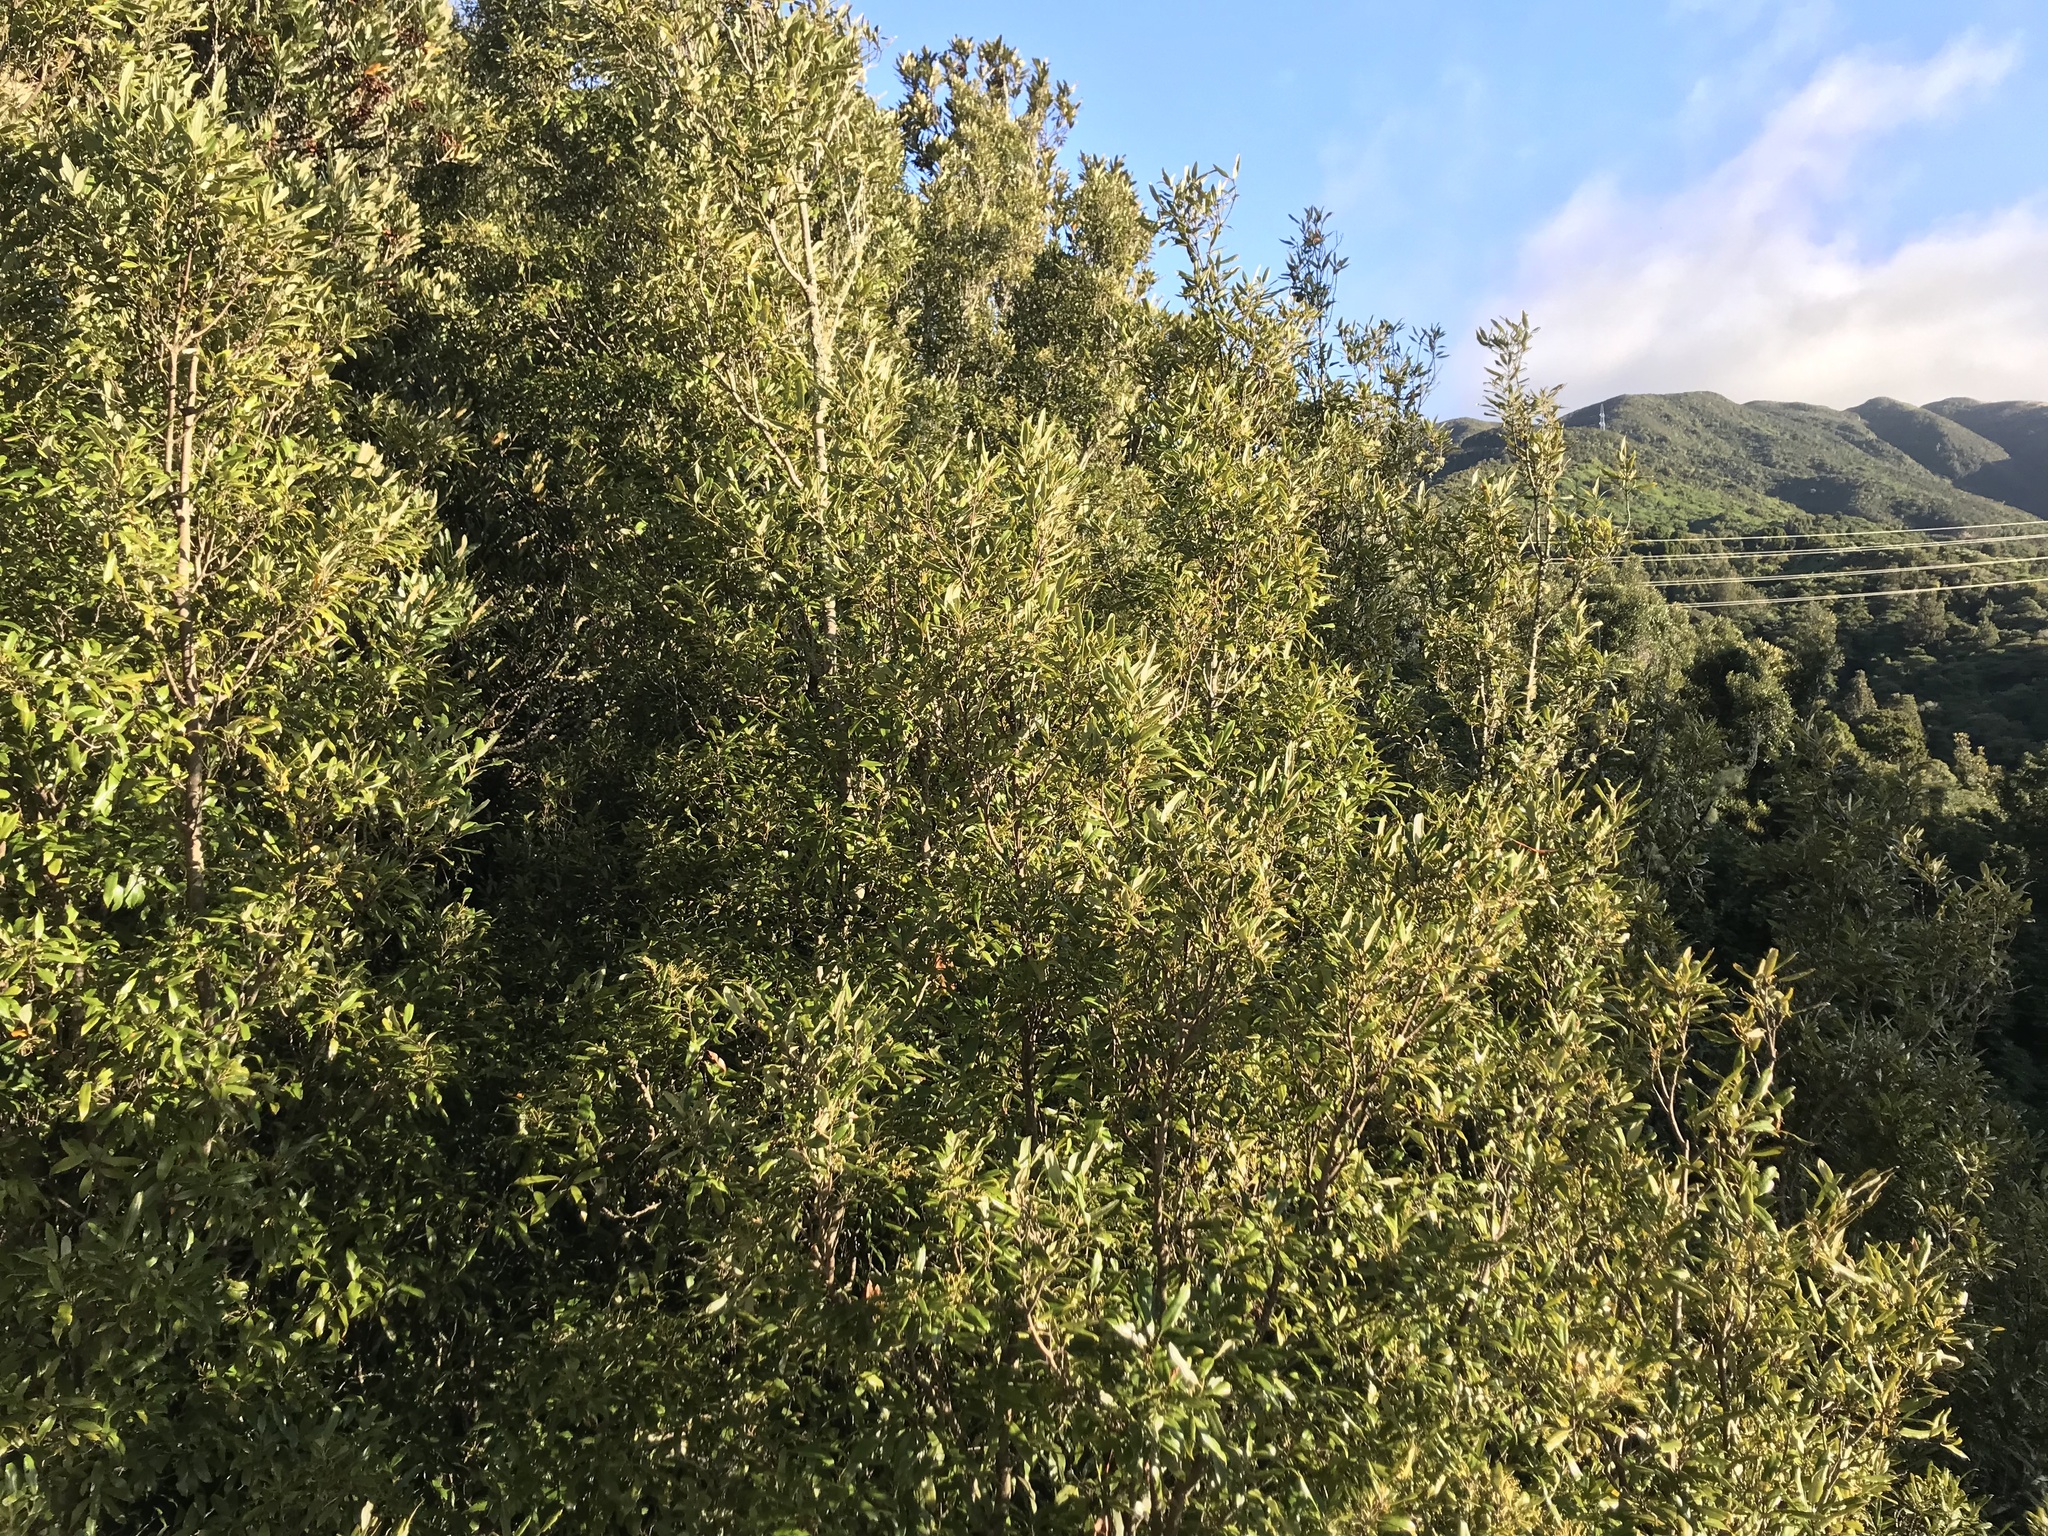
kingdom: Plantae
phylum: Tracheophyta
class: Magnoliopsida
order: Laurales
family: Lauraceae
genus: Beilschmiedia
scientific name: Beilschmiedia tawa
